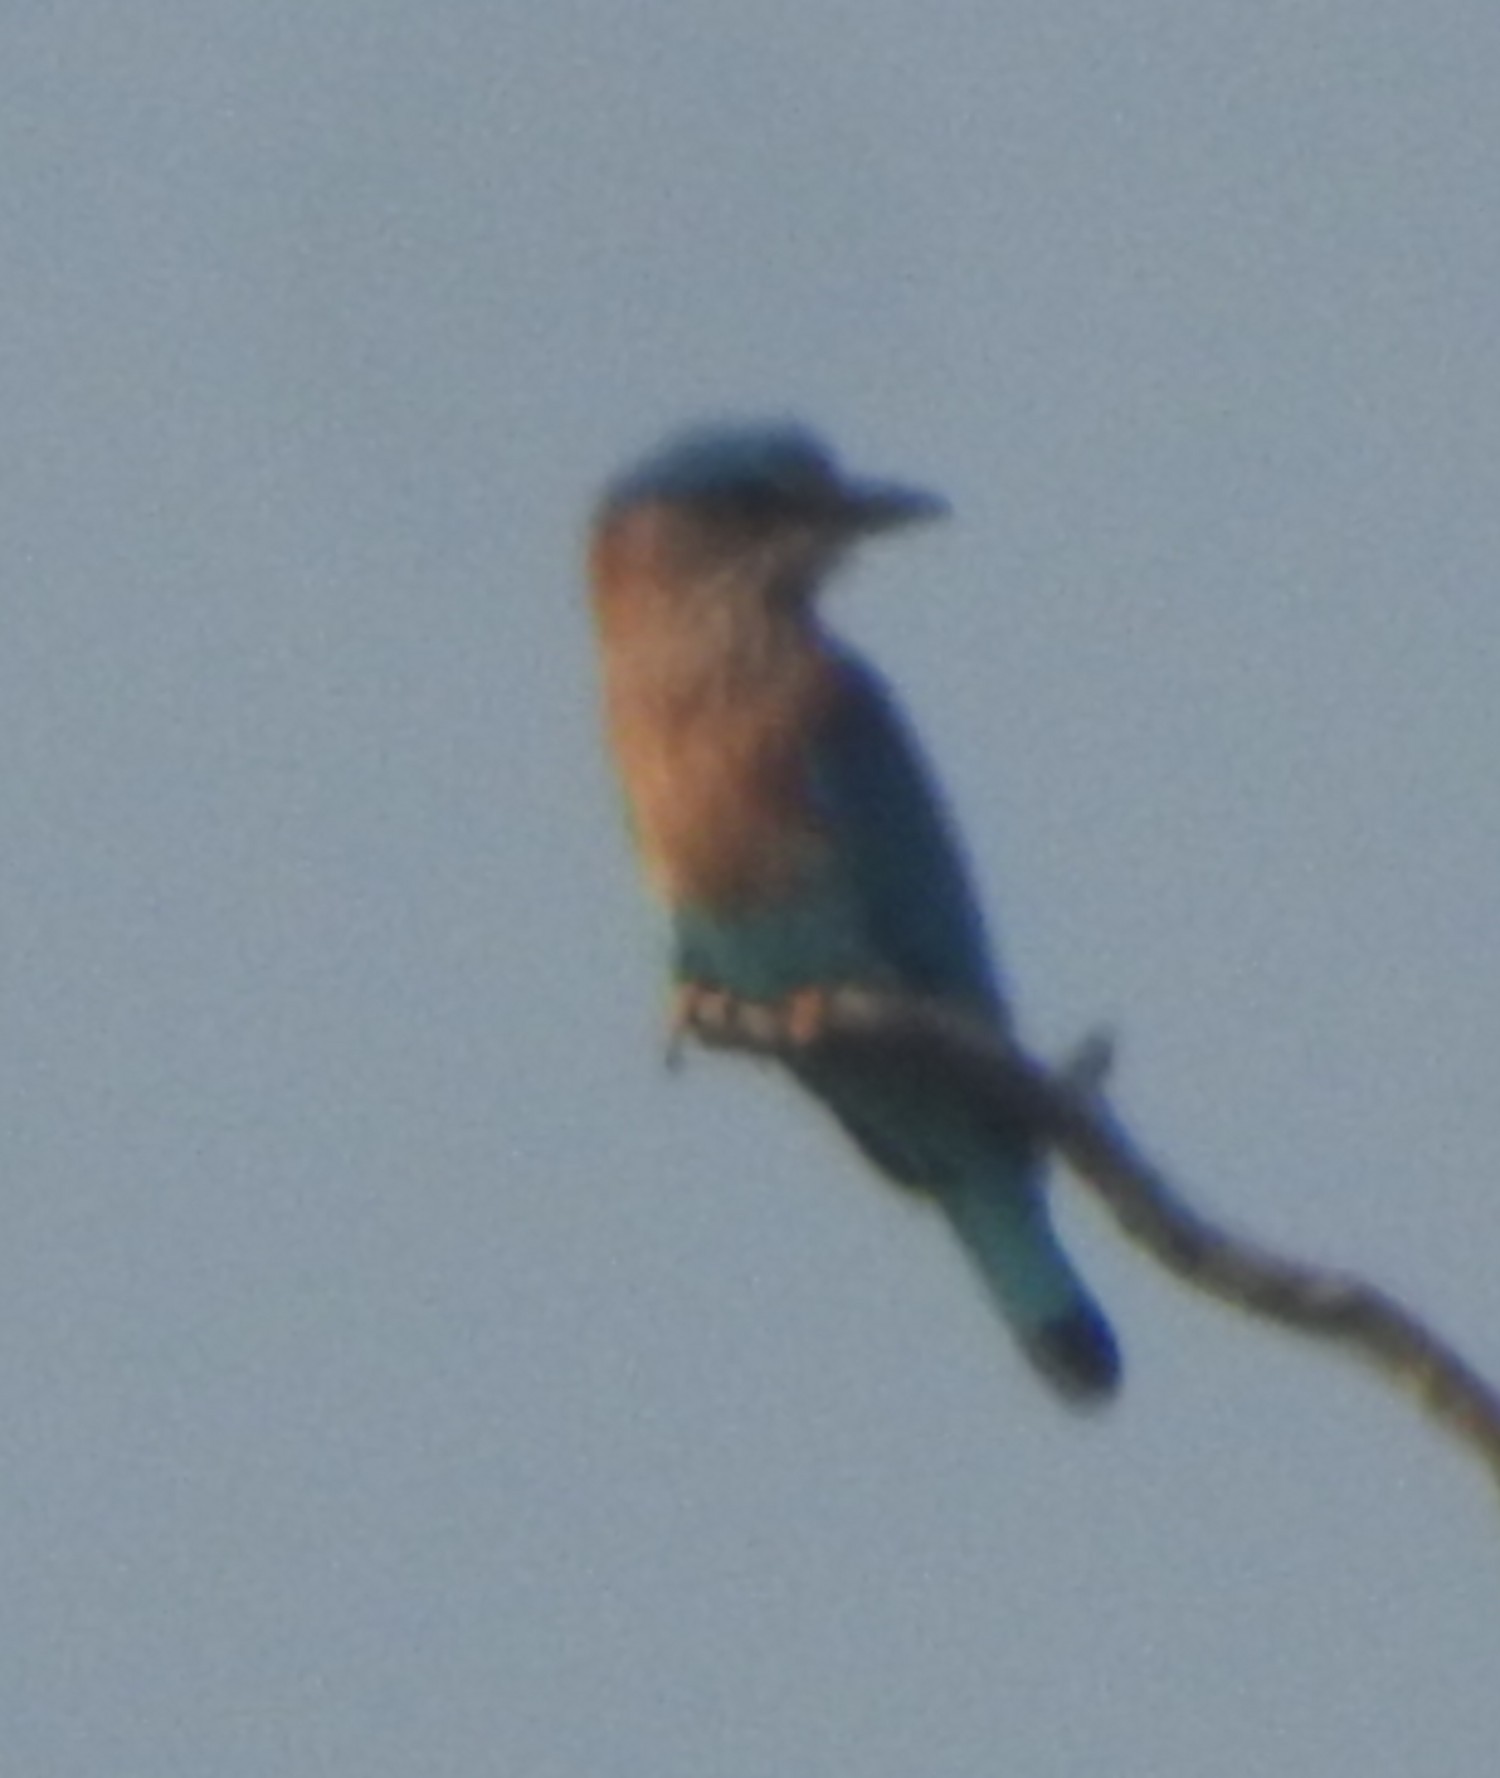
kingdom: Animalia
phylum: Chordata
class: Aves
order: Coraciiformes
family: Coraciidae
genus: Coracias
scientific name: Coracias benghalensis
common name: Indian roller
